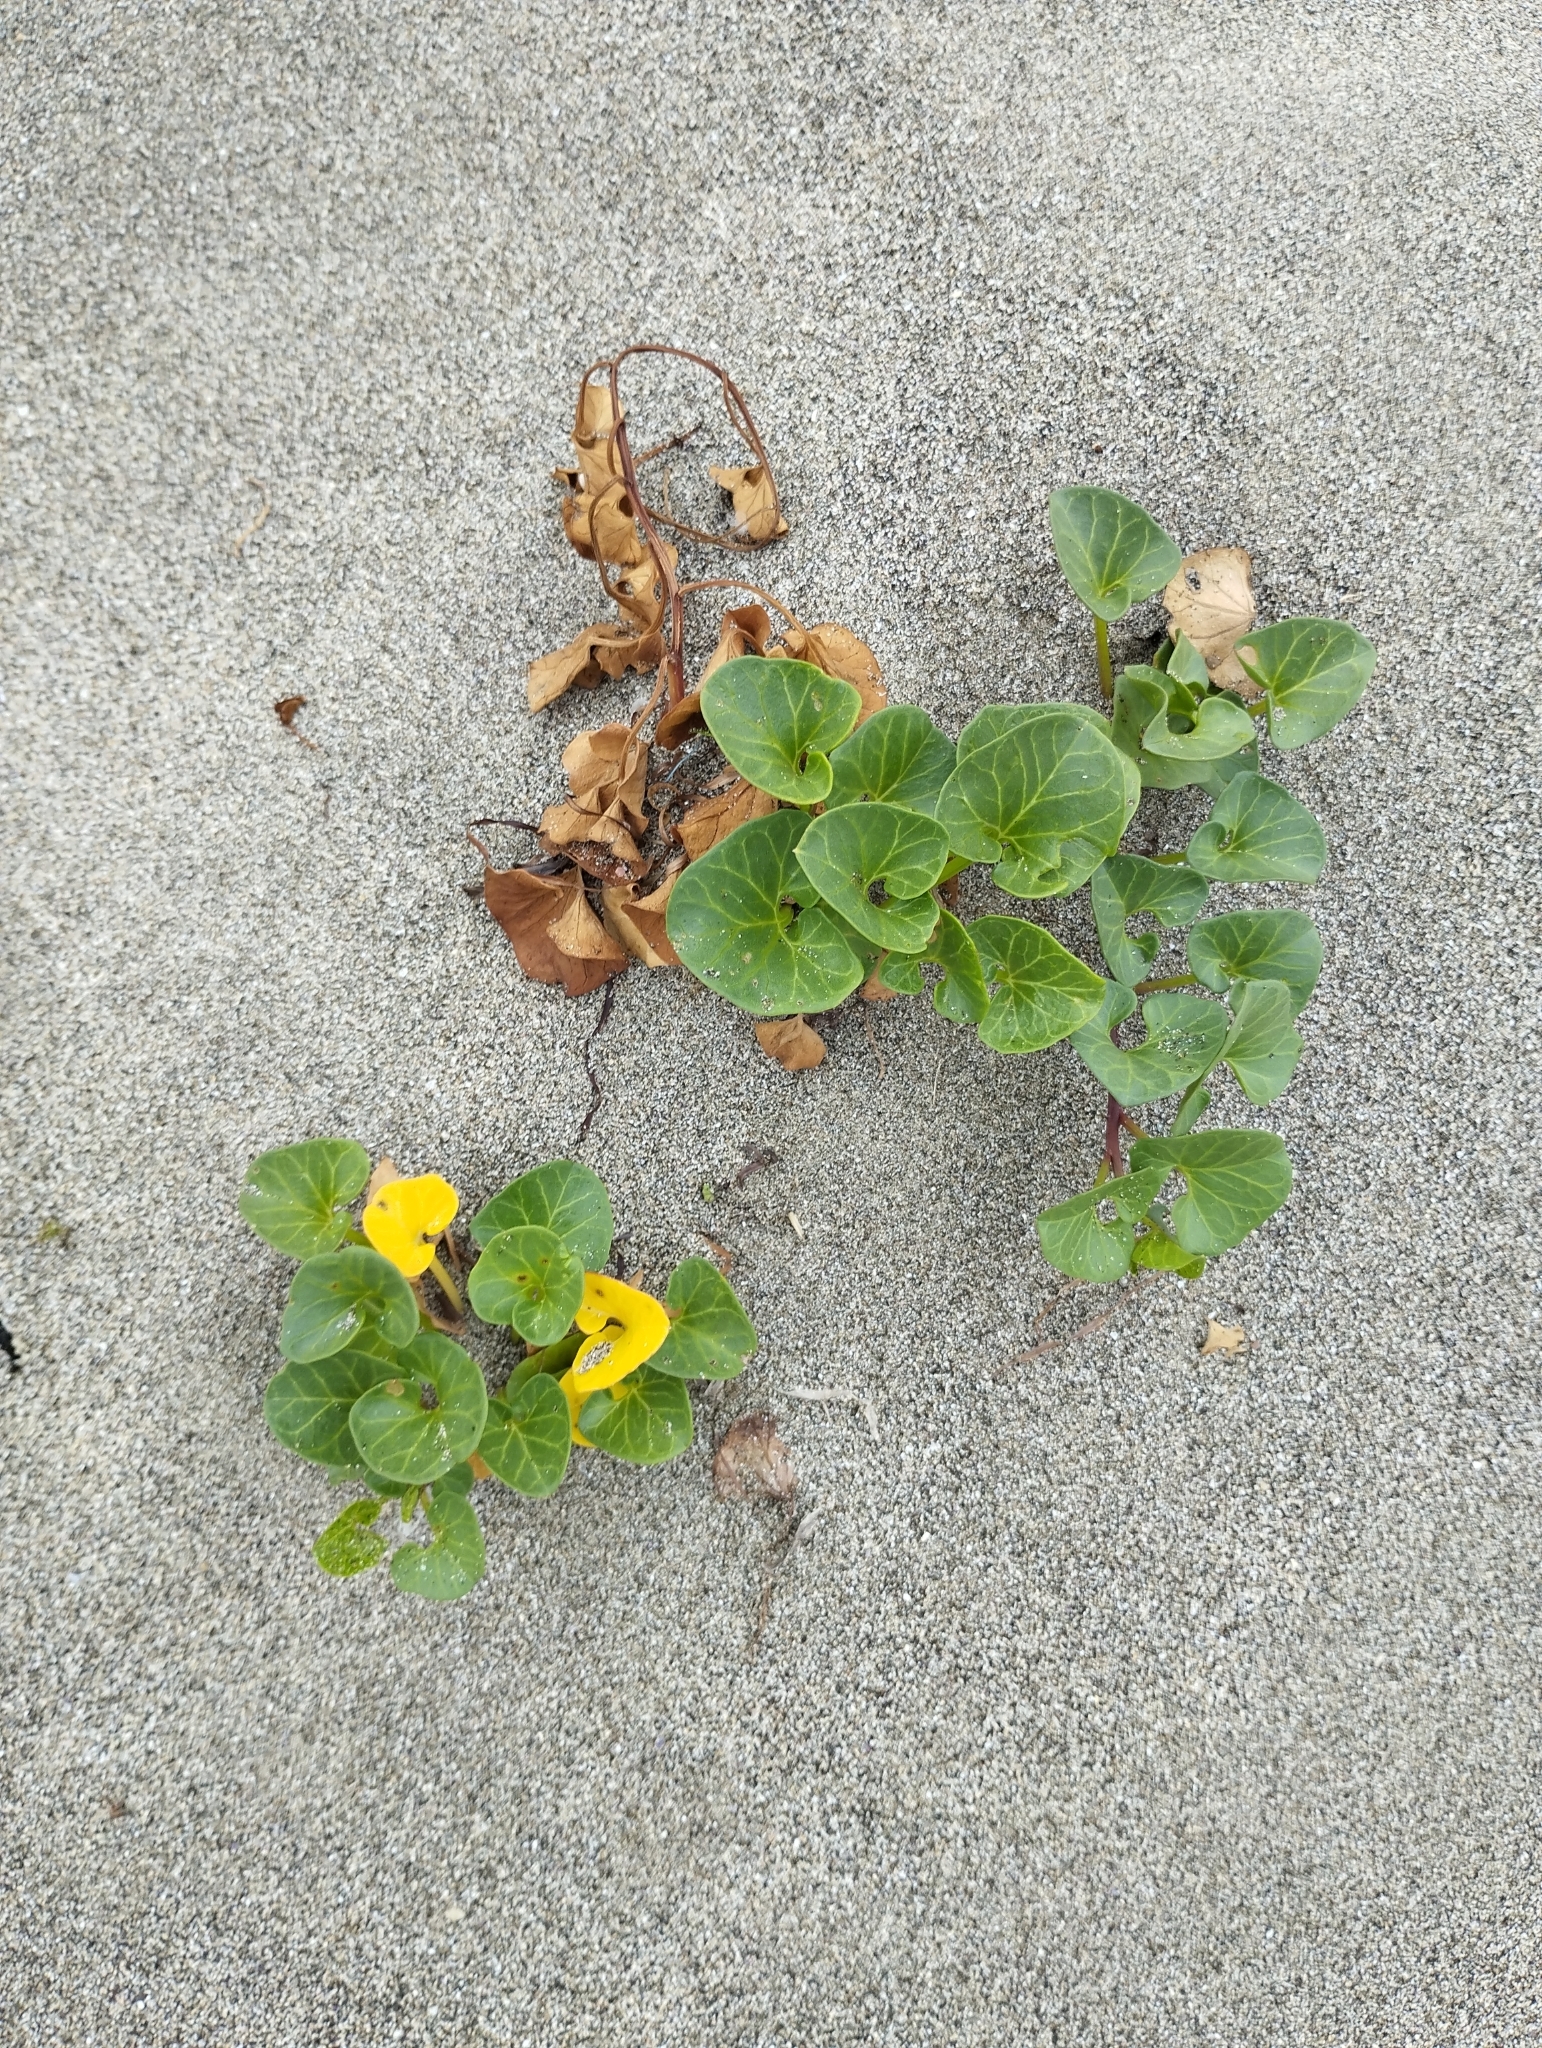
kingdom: Plantae
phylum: Tracheophyta
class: Magnoliopsida
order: Solanales
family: Convolvulaceae
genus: Calystegia
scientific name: Calystegia soldanella
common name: Sea bindweed
